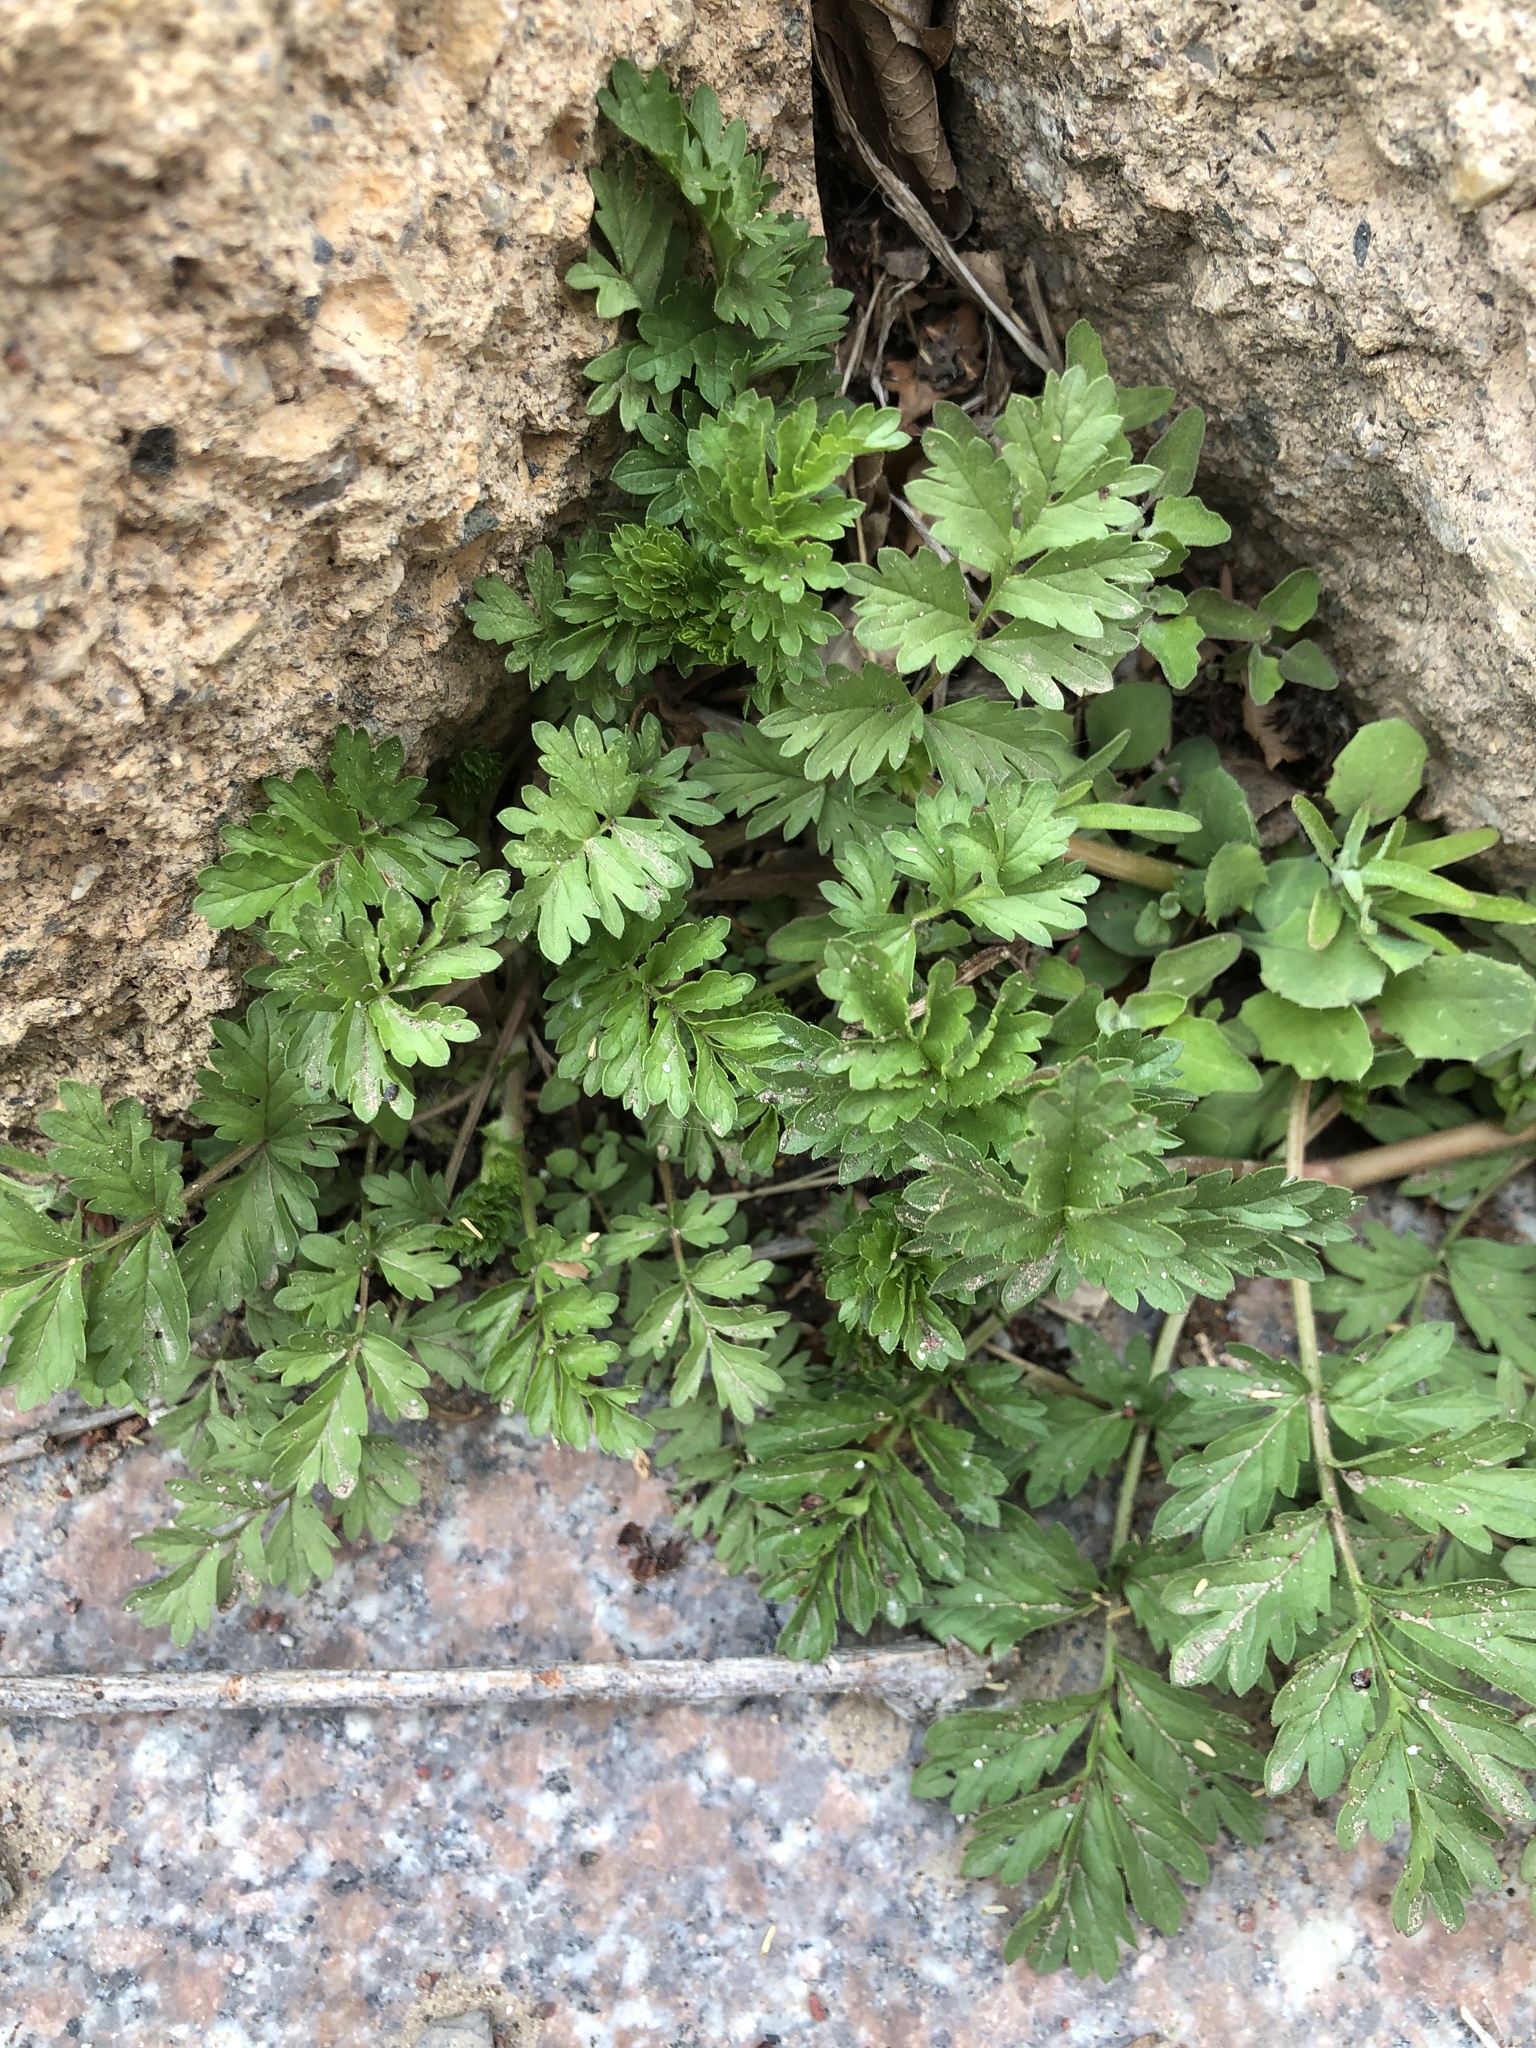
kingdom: Plantae
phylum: Tracheophyta
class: Magnoliopsida
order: Rosales
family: Rosaceae
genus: Potentilla
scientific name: Potentilla supina
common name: Prostrate cinquefoil
